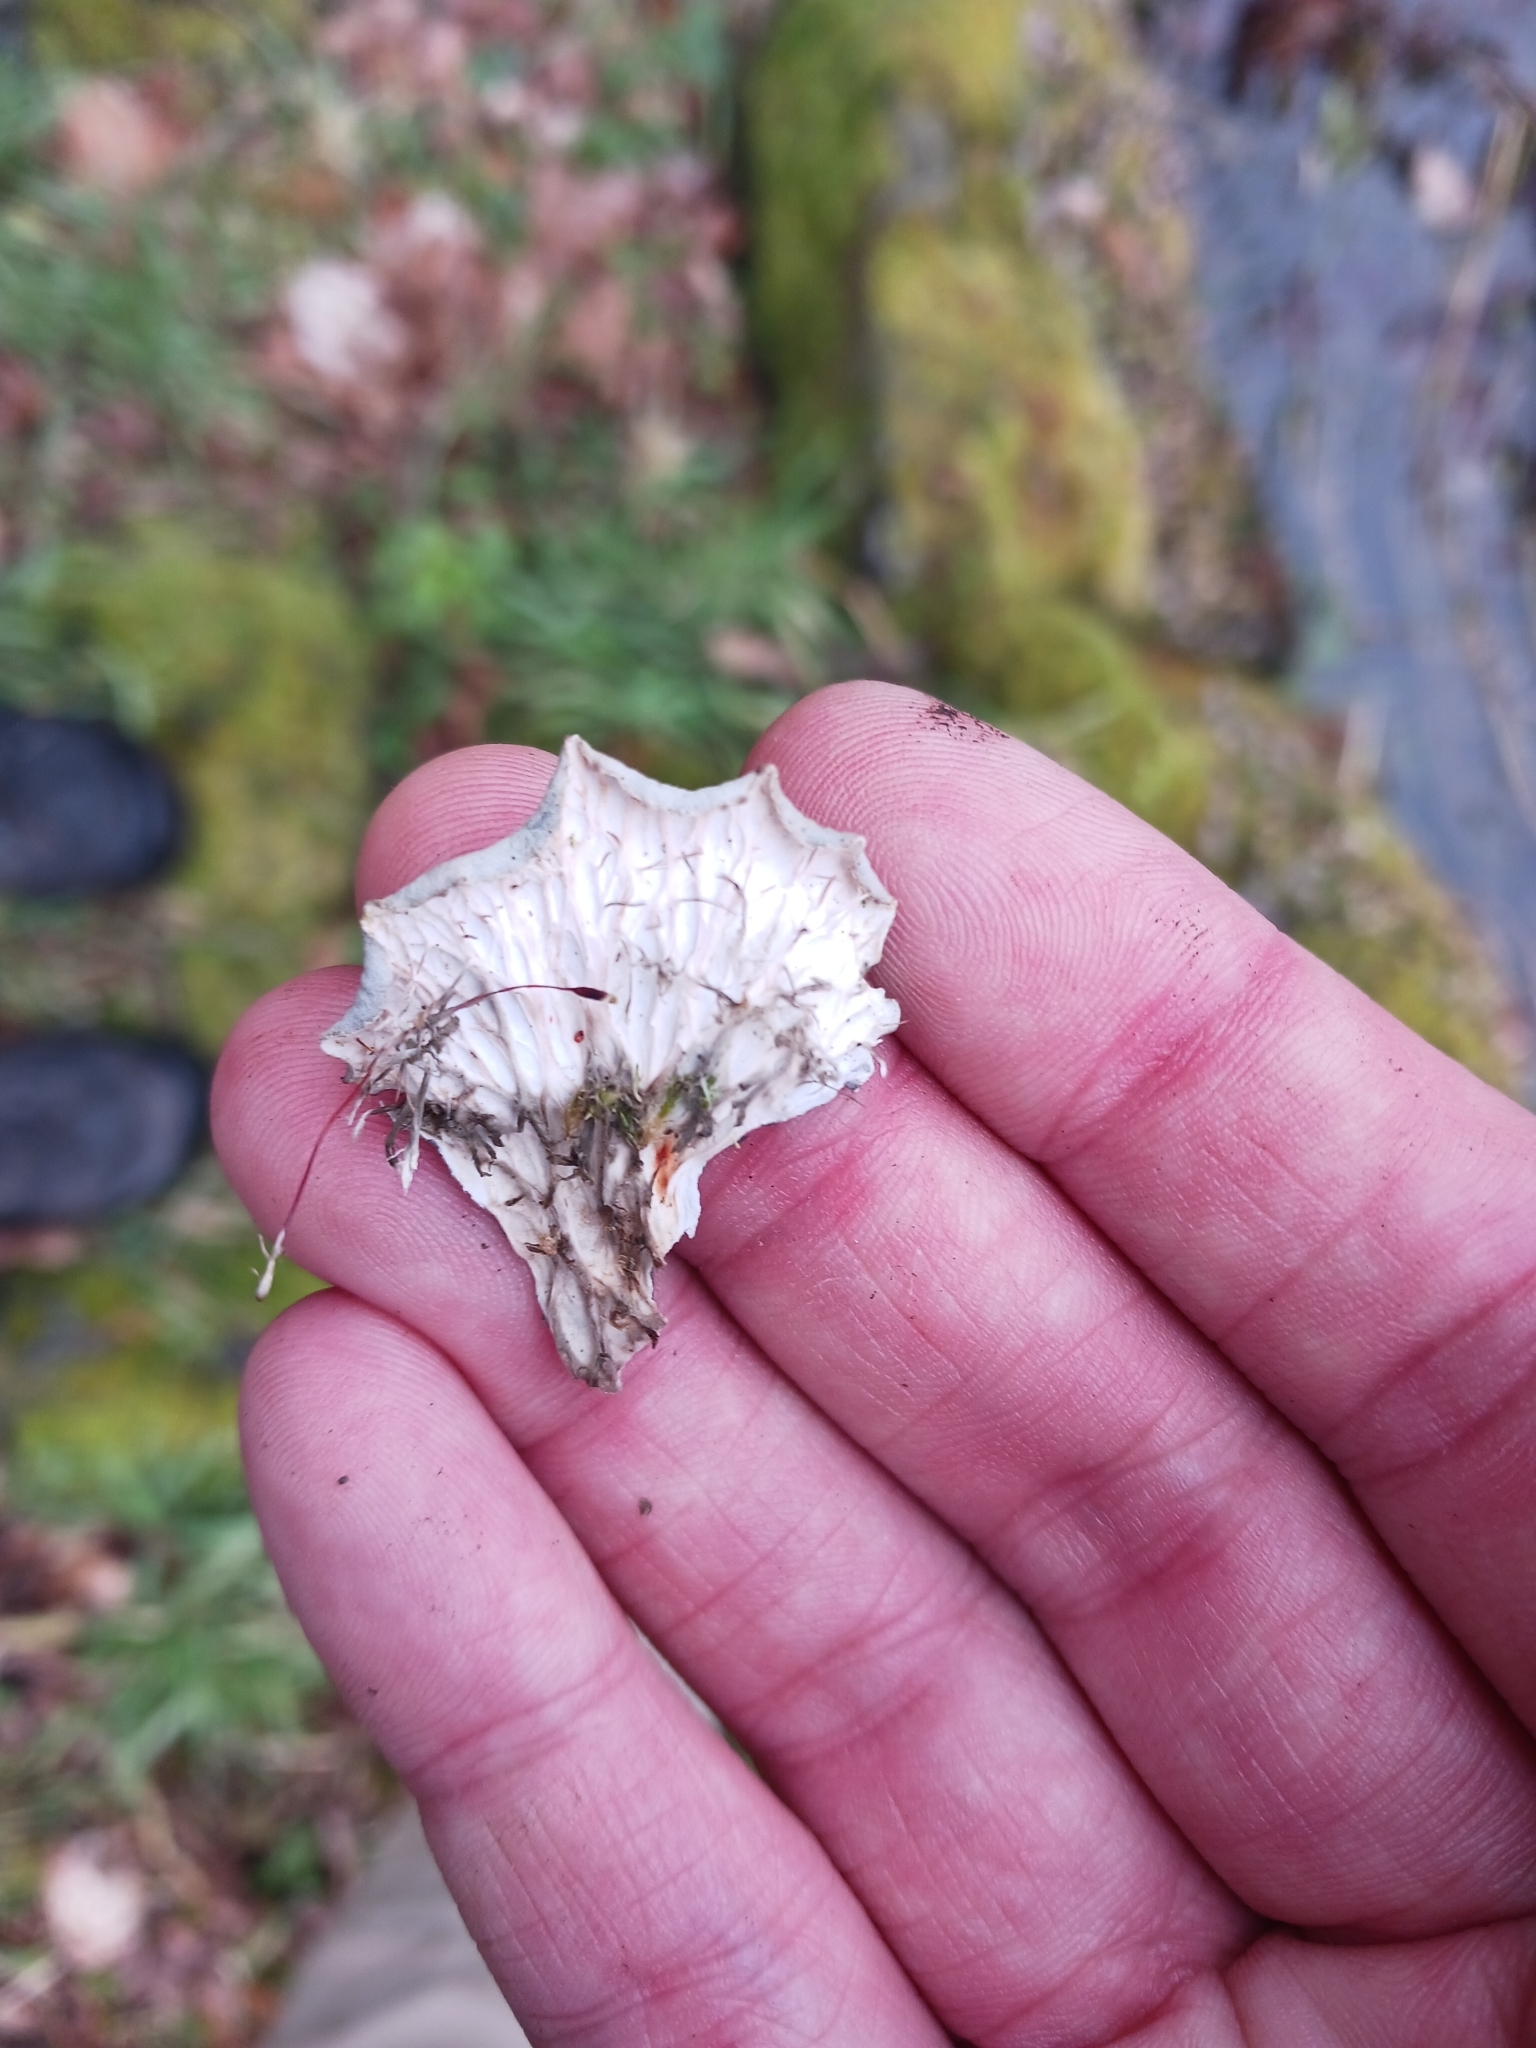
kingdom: Fungi
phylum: Ascomycota
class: Lecanoromycetes
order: Peltigerales
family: Peltigeraceae
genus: Peltigera
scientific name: Peltigera praetextata
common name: Scaly dog-lichen
